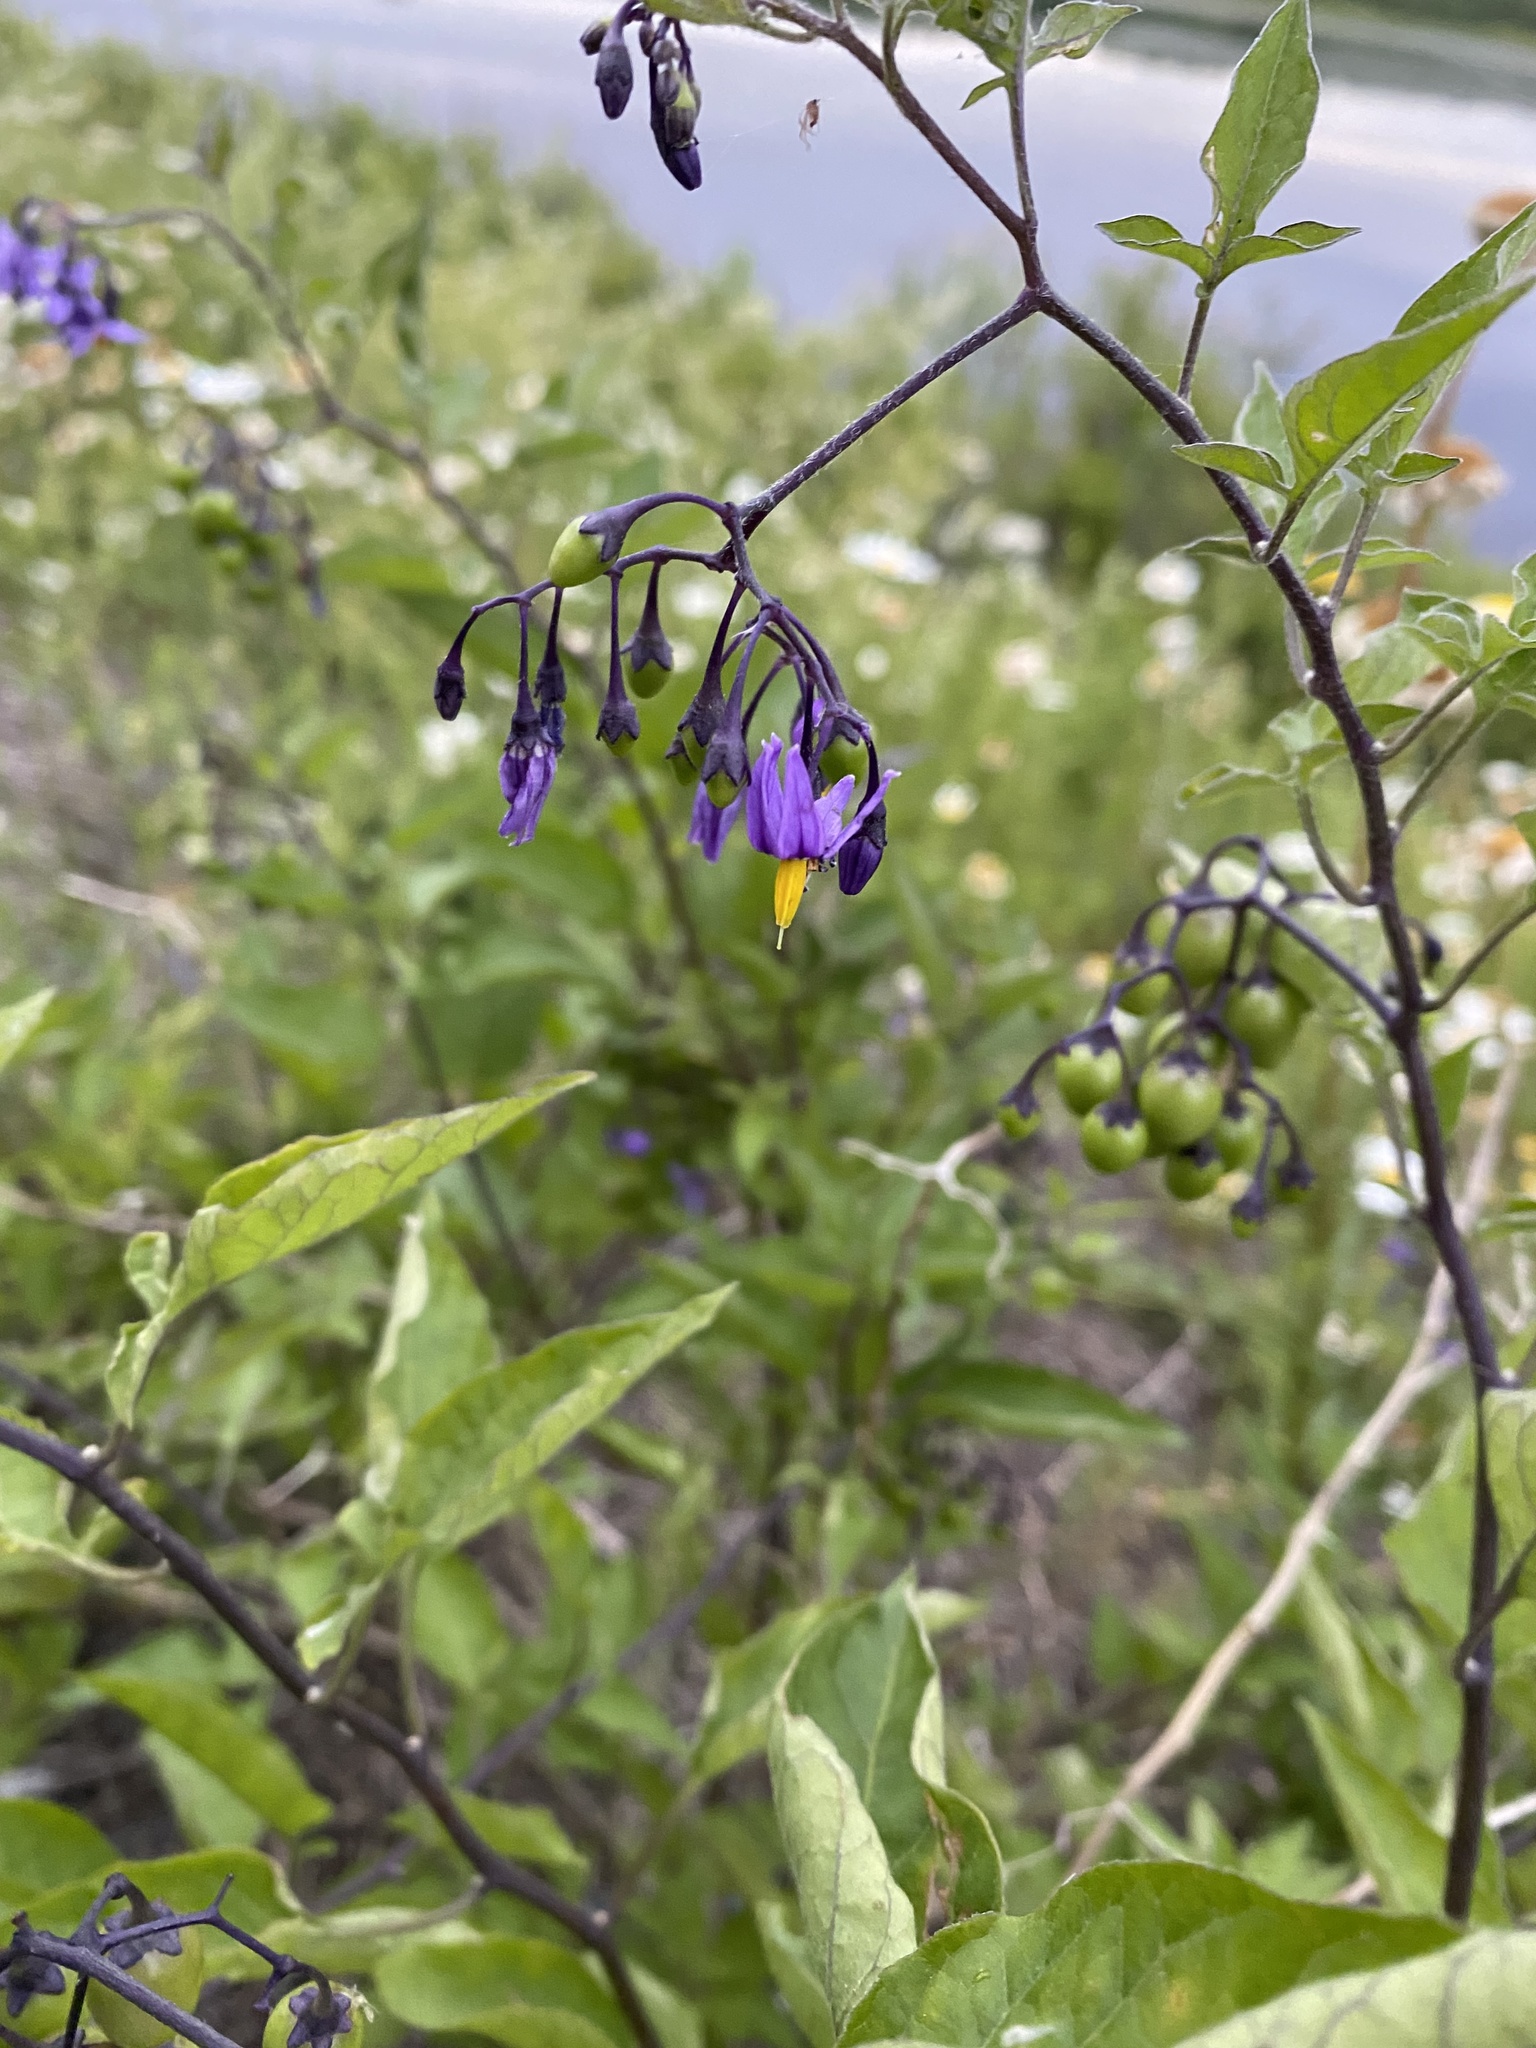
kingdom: Plantae
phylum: Tracheophyta
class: Magnoliopsida
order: Solanales
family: Solanaceae
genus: Solanum
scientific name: Solanum dulcamara
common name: Climbing nightshade
